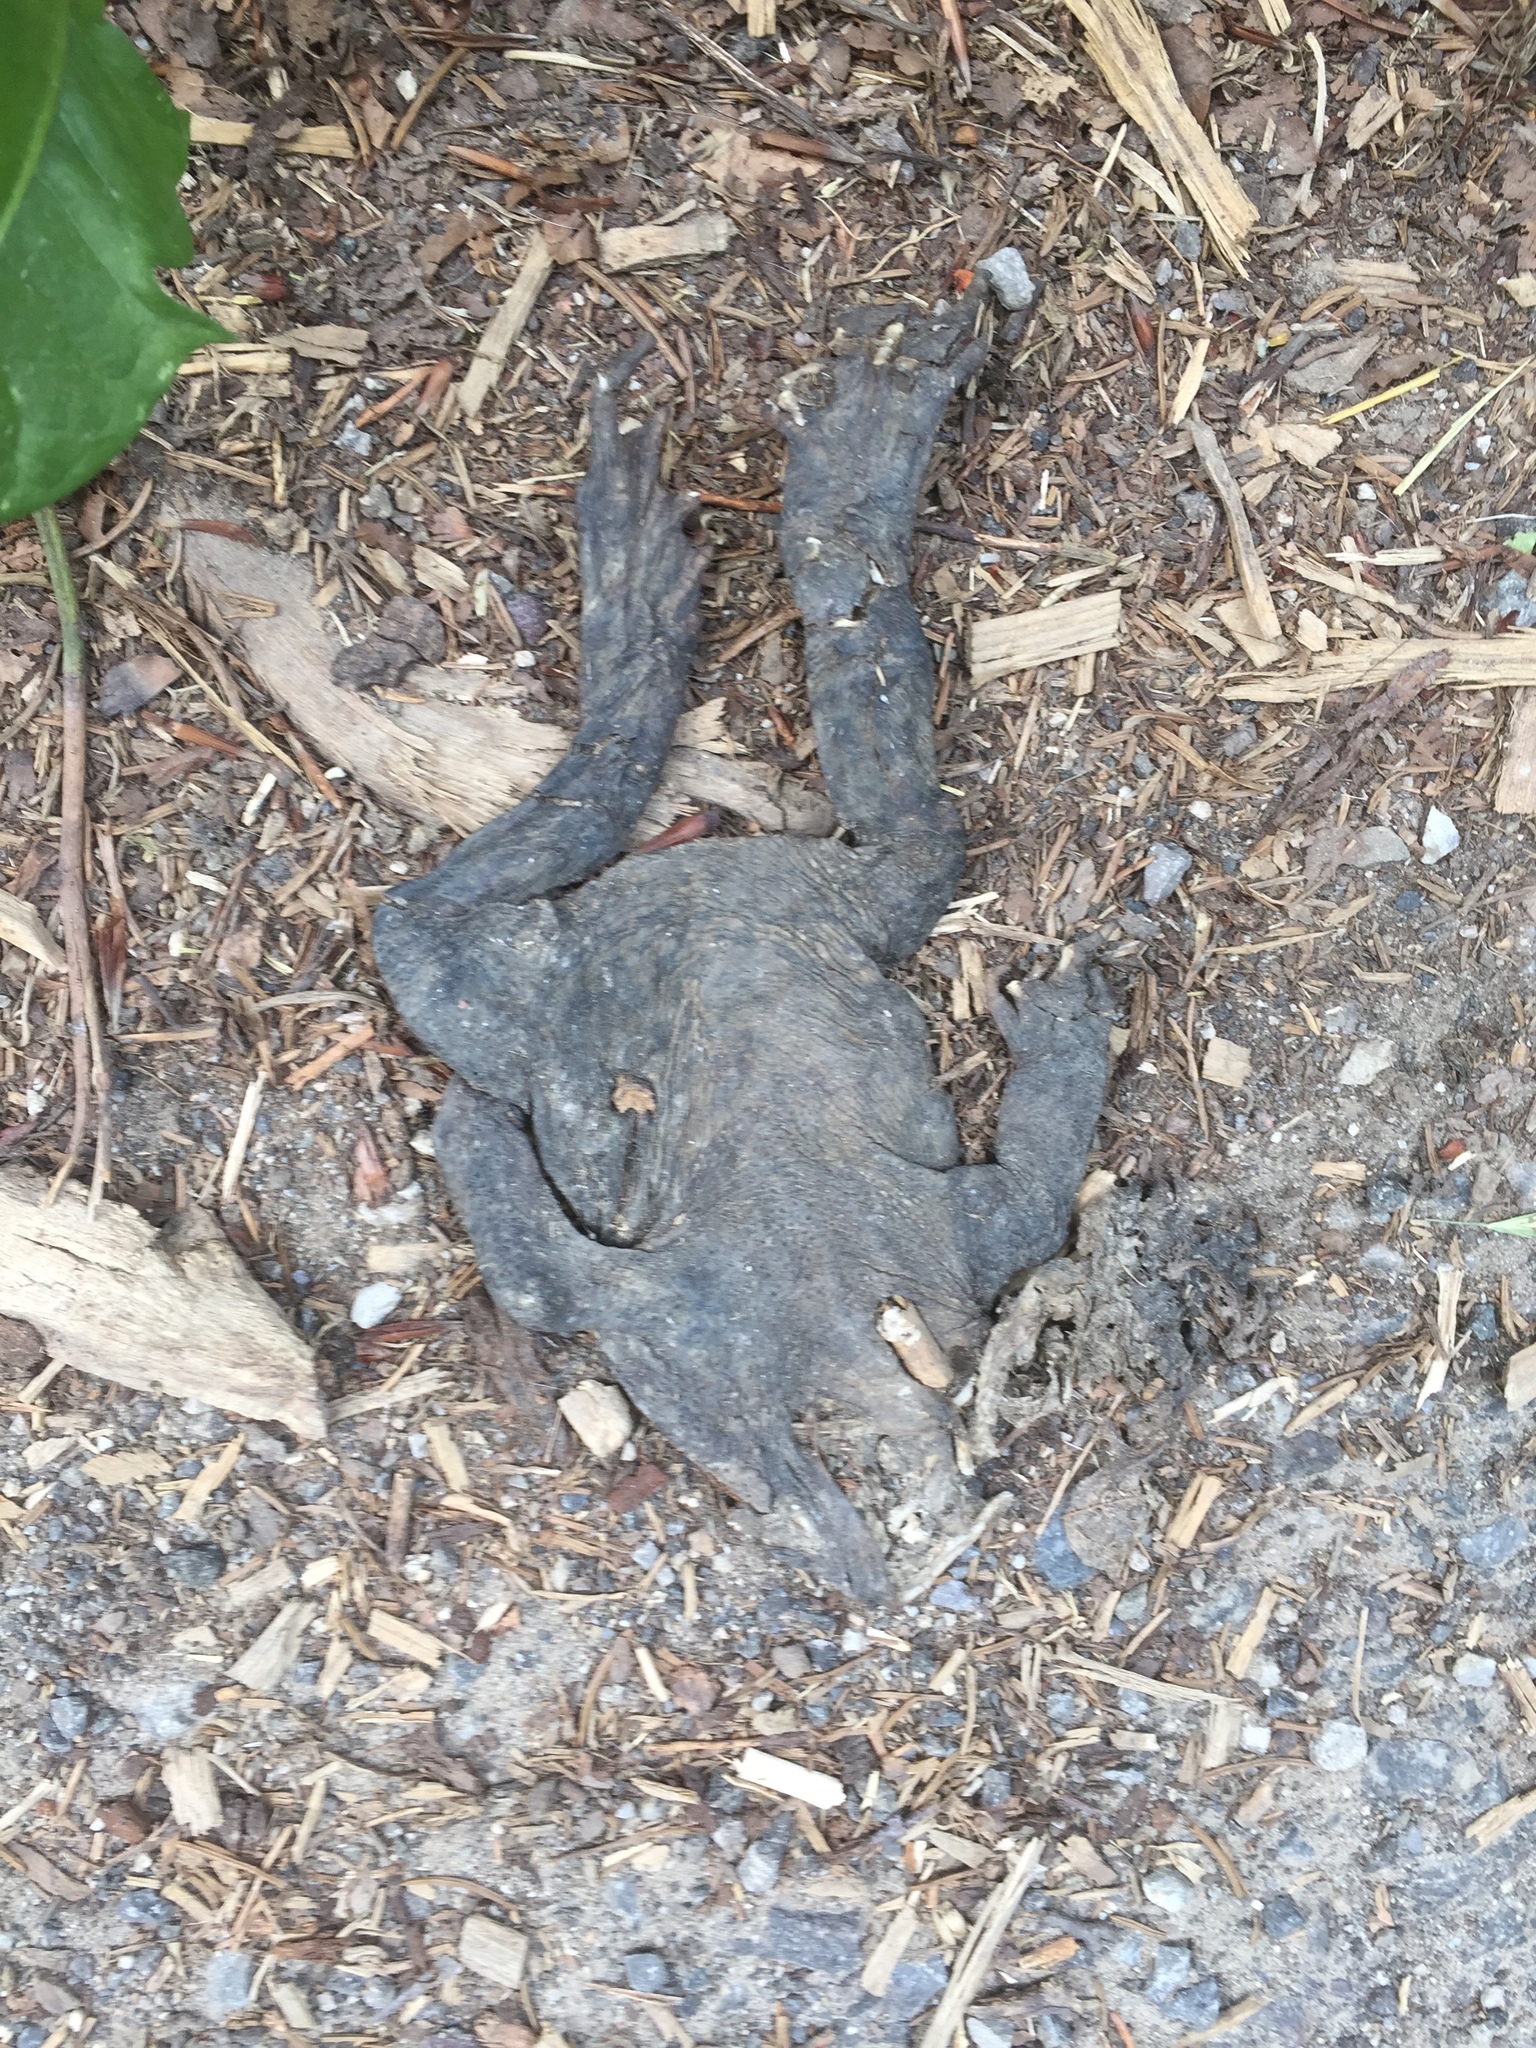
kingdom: Animalia
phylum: Chordata
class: Amphibia
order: Anura
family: Bufonidae
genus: Bufo
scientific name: Bufo bufo
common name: Common toad
